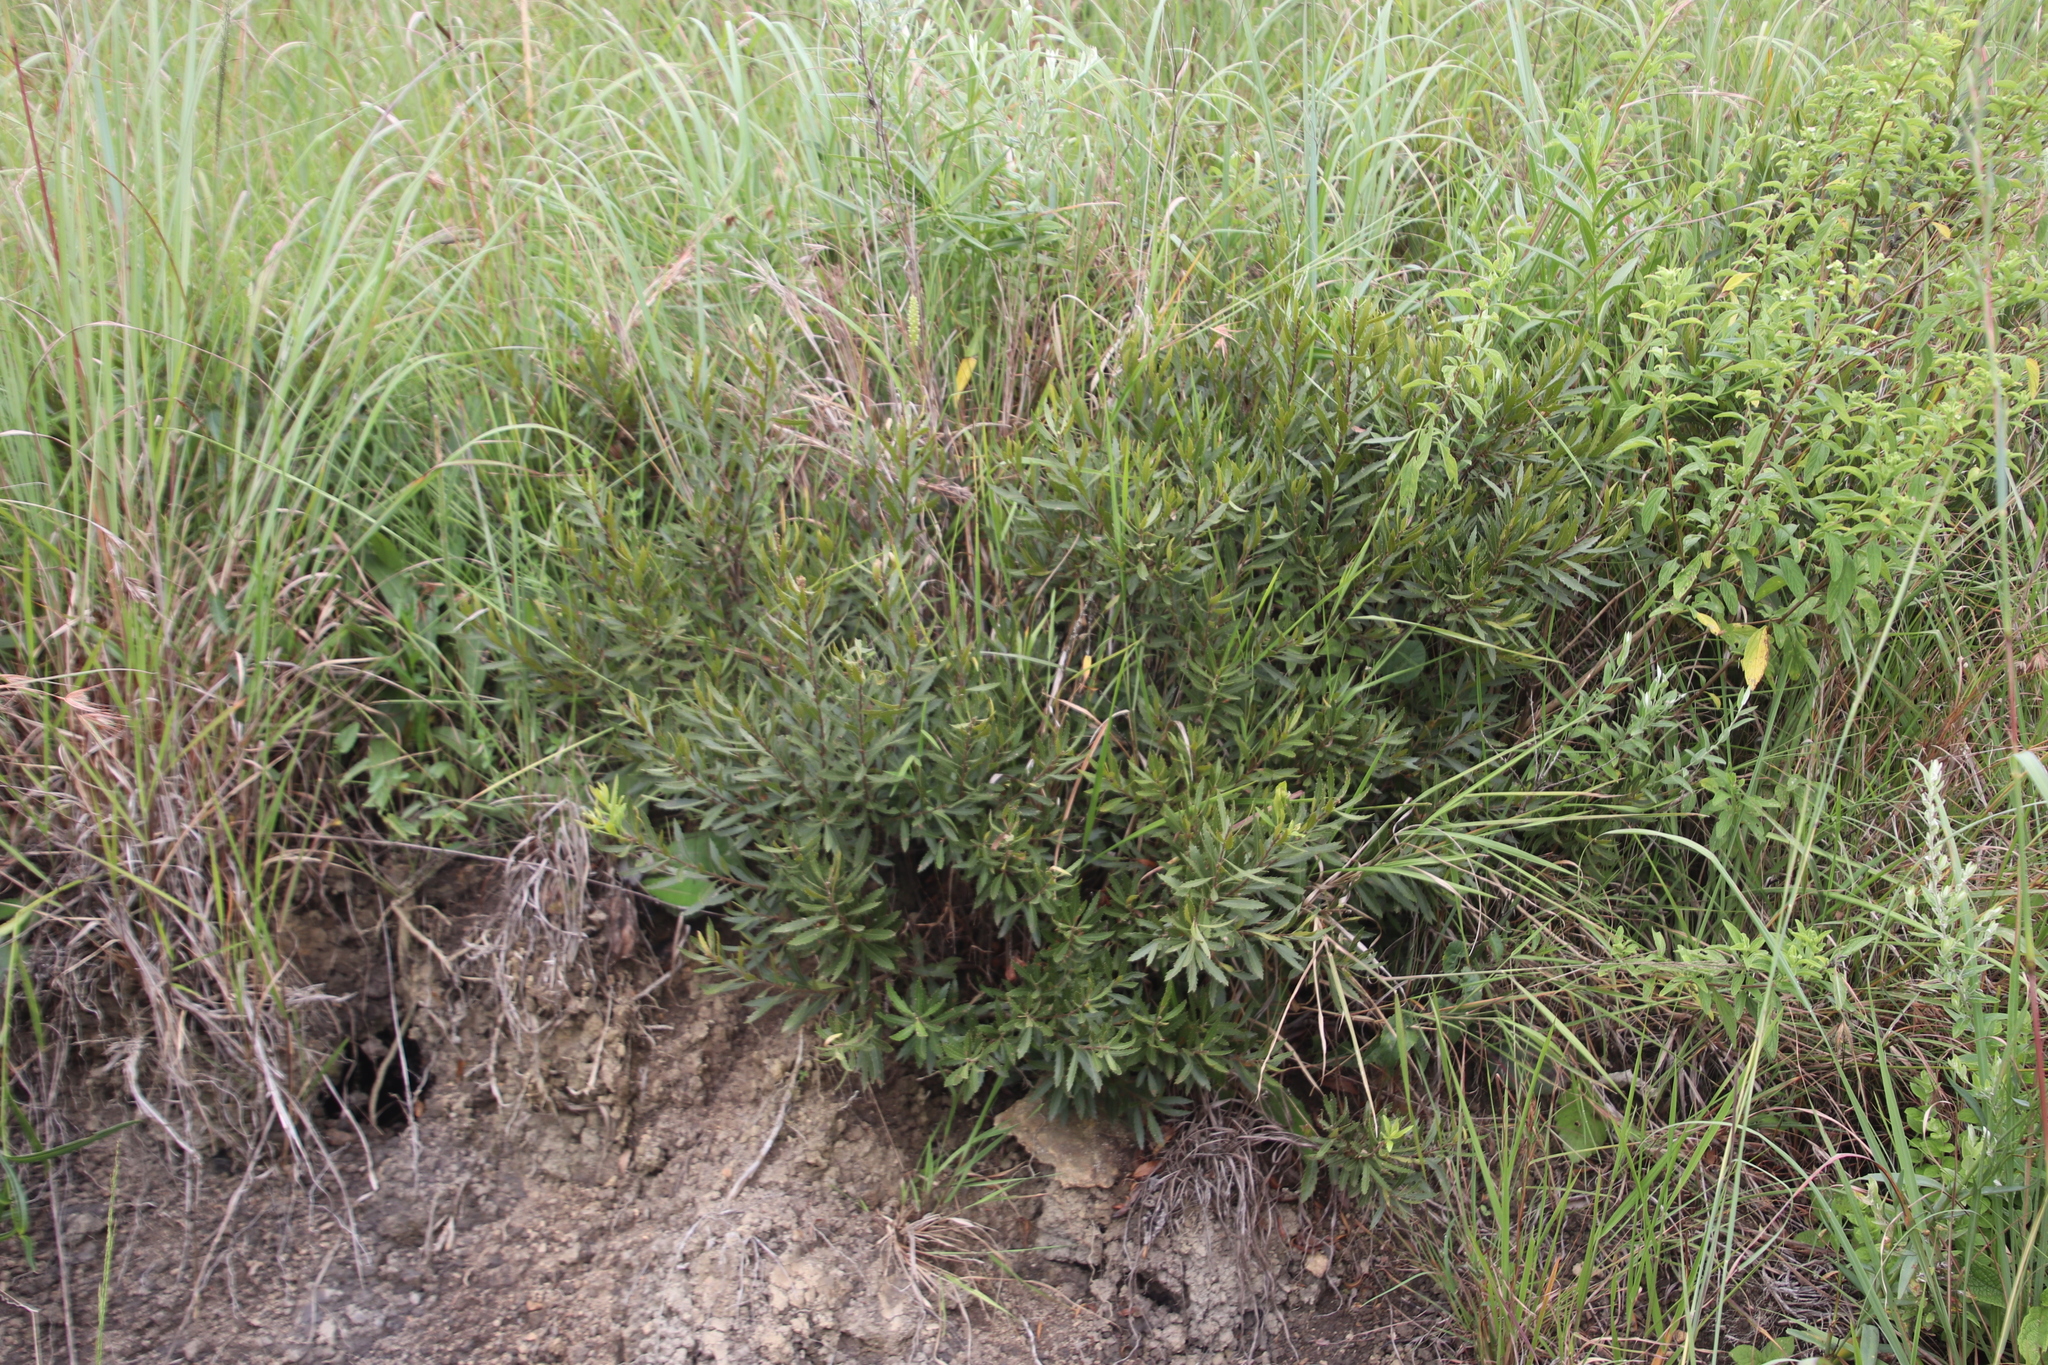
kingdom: Plantae
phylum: Tracheophyta
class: Magnoliopsida
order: Fagales
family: Myricaceae
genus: Morella
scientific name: Morella serrata
